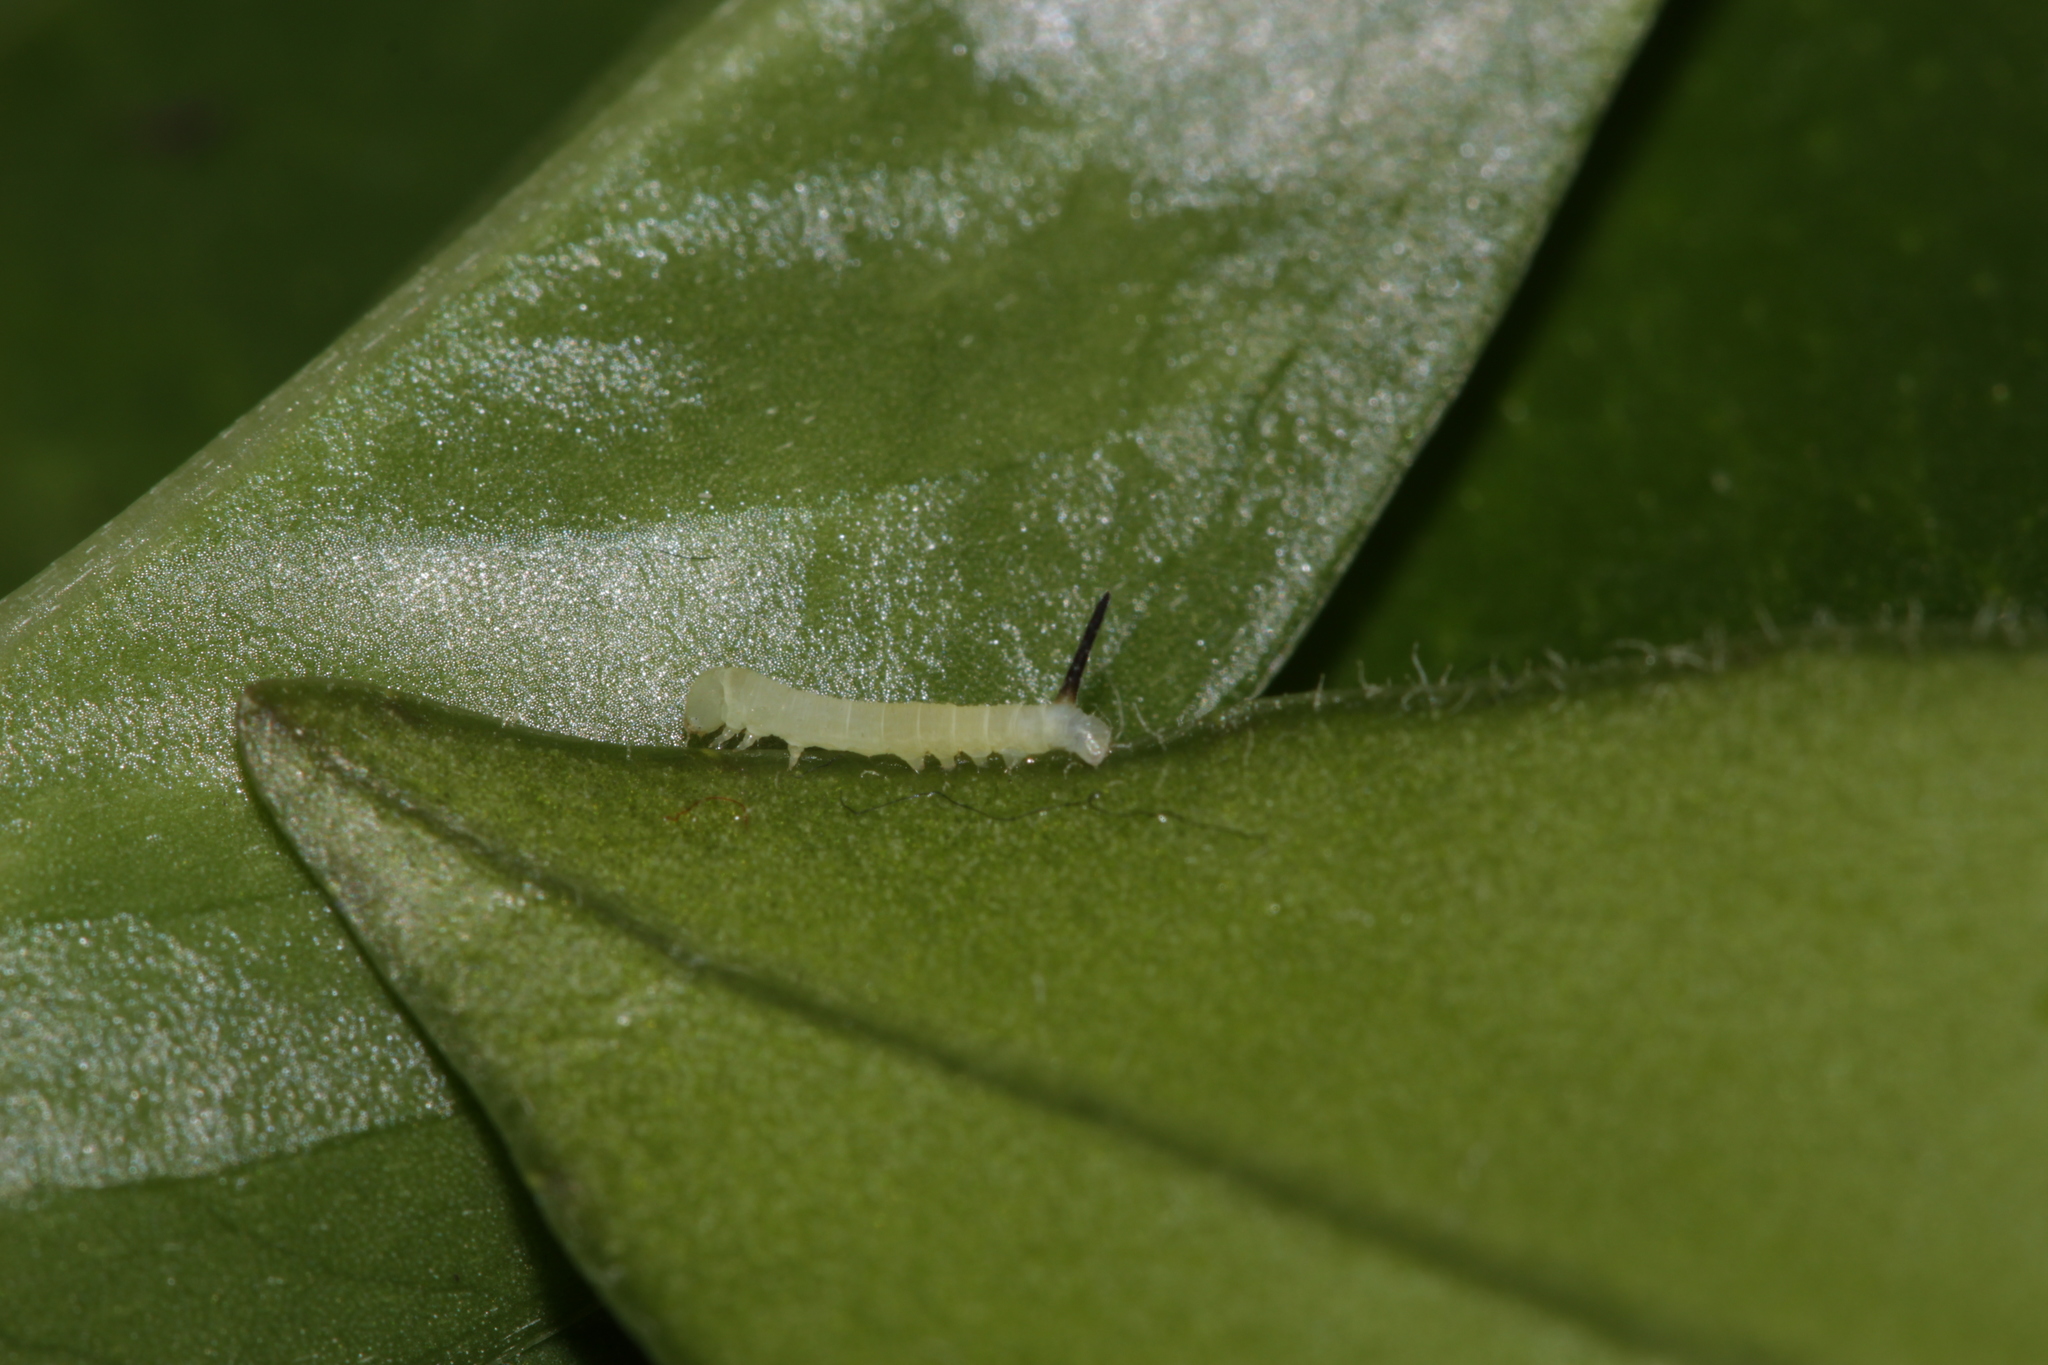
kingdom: Animalia
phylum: Arthropoda
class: Insecta
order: Lepidoptera
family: Sphingidae
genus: Deilephila
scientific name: Deilephila elpenor
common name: Elephant hawk-moth
